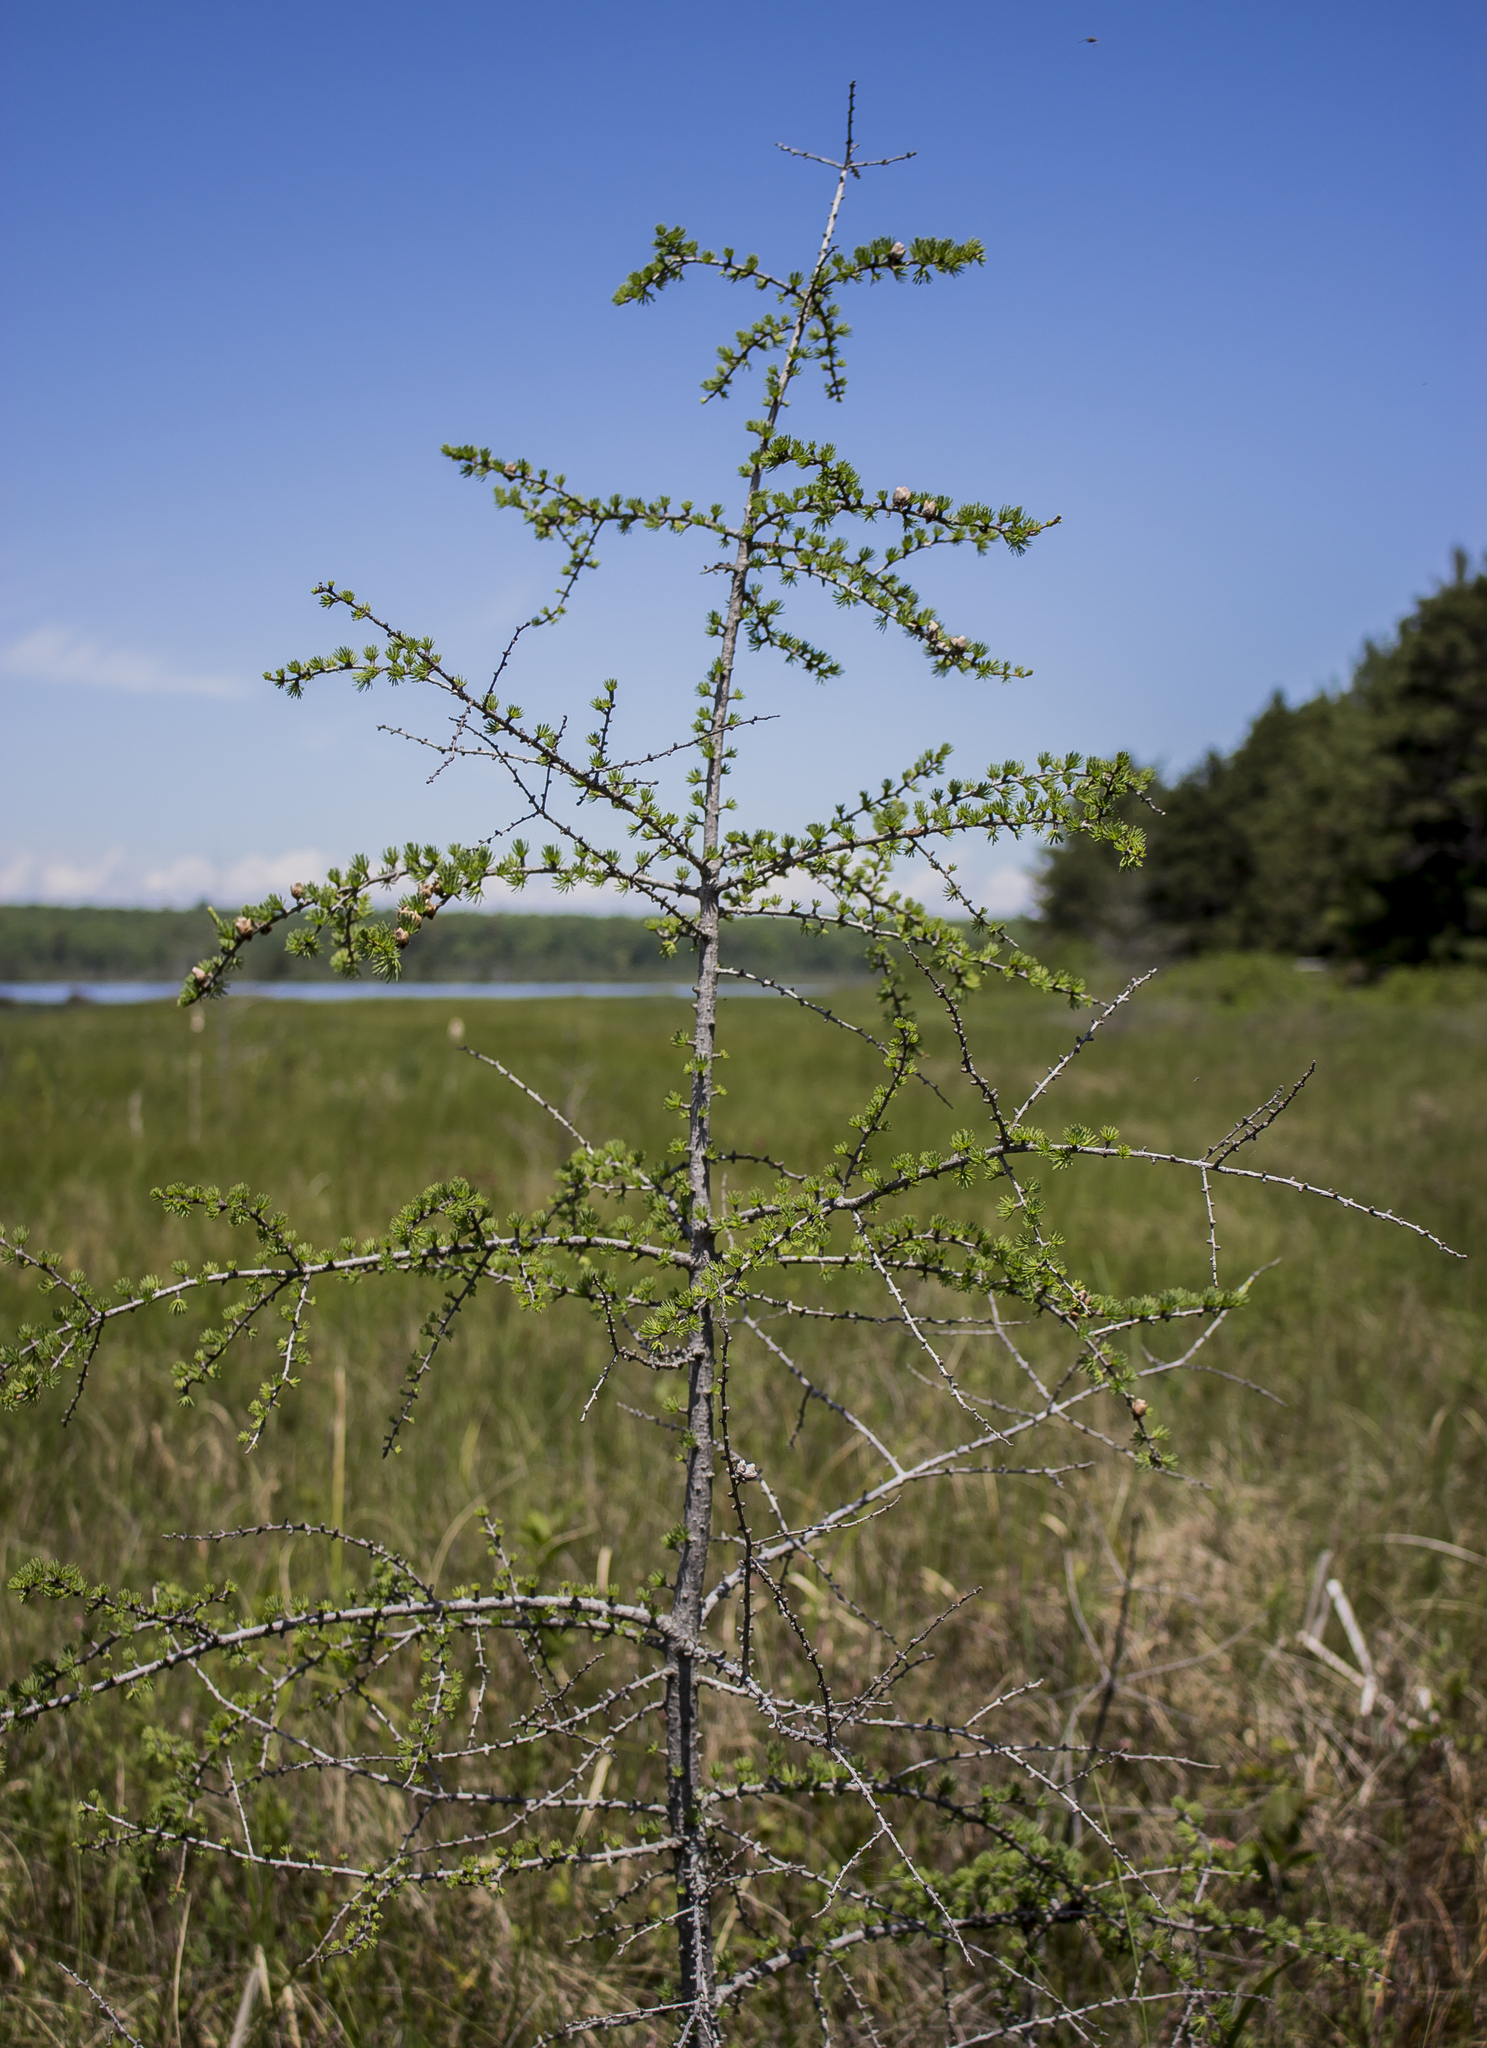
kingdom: Plantae
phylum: Tracheophyta
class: Pinopsida
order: Pinales
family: Pinaceae
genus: Larix
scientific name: Larix laricina
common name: American larch
